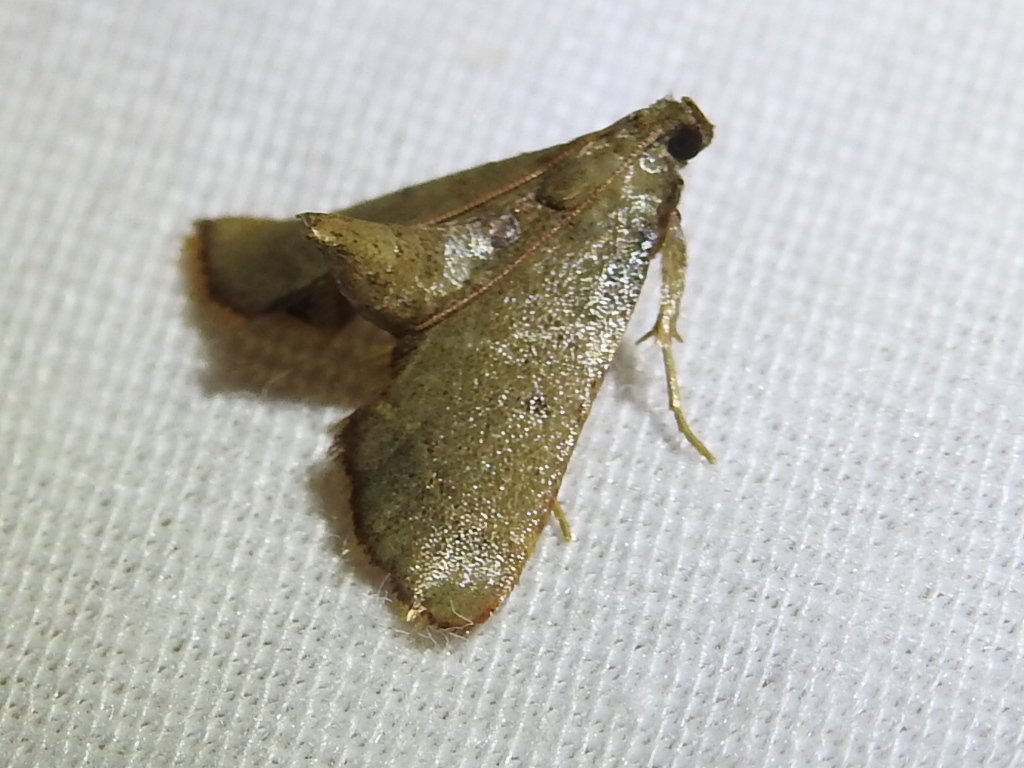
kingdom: Animalia
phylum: Arthropoda
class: Insecta
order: Lepidoptera
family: Pyralidae
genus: Hypsopygia
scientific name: Hypsopygia binodulalis
